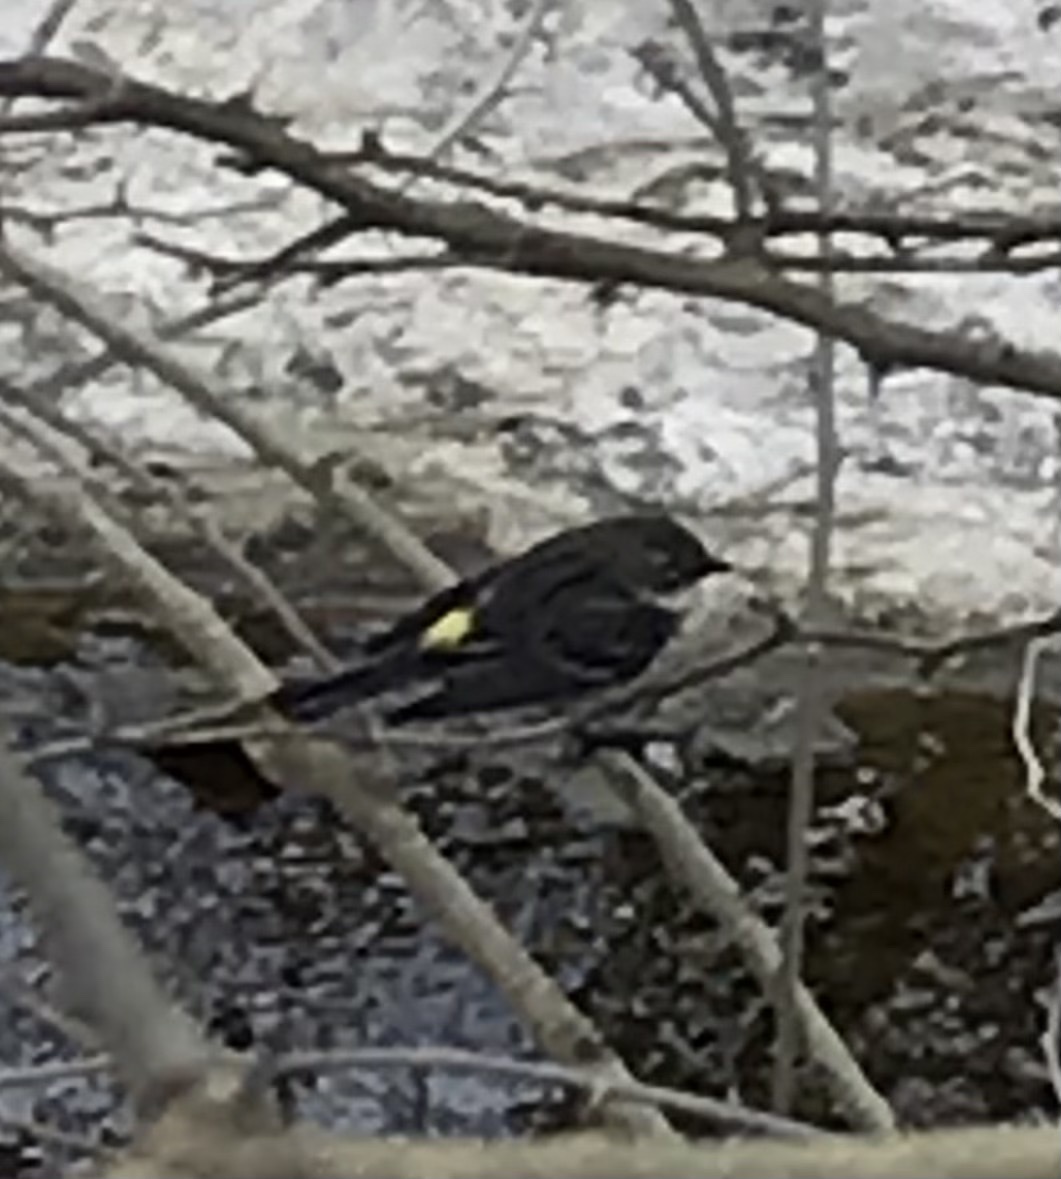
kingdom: Animalia
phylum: Chordata
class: Aves
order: Passeriformes
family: Parulidae
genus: Setophaga
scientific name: Setophaga coronata
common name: Myrtle warbler
